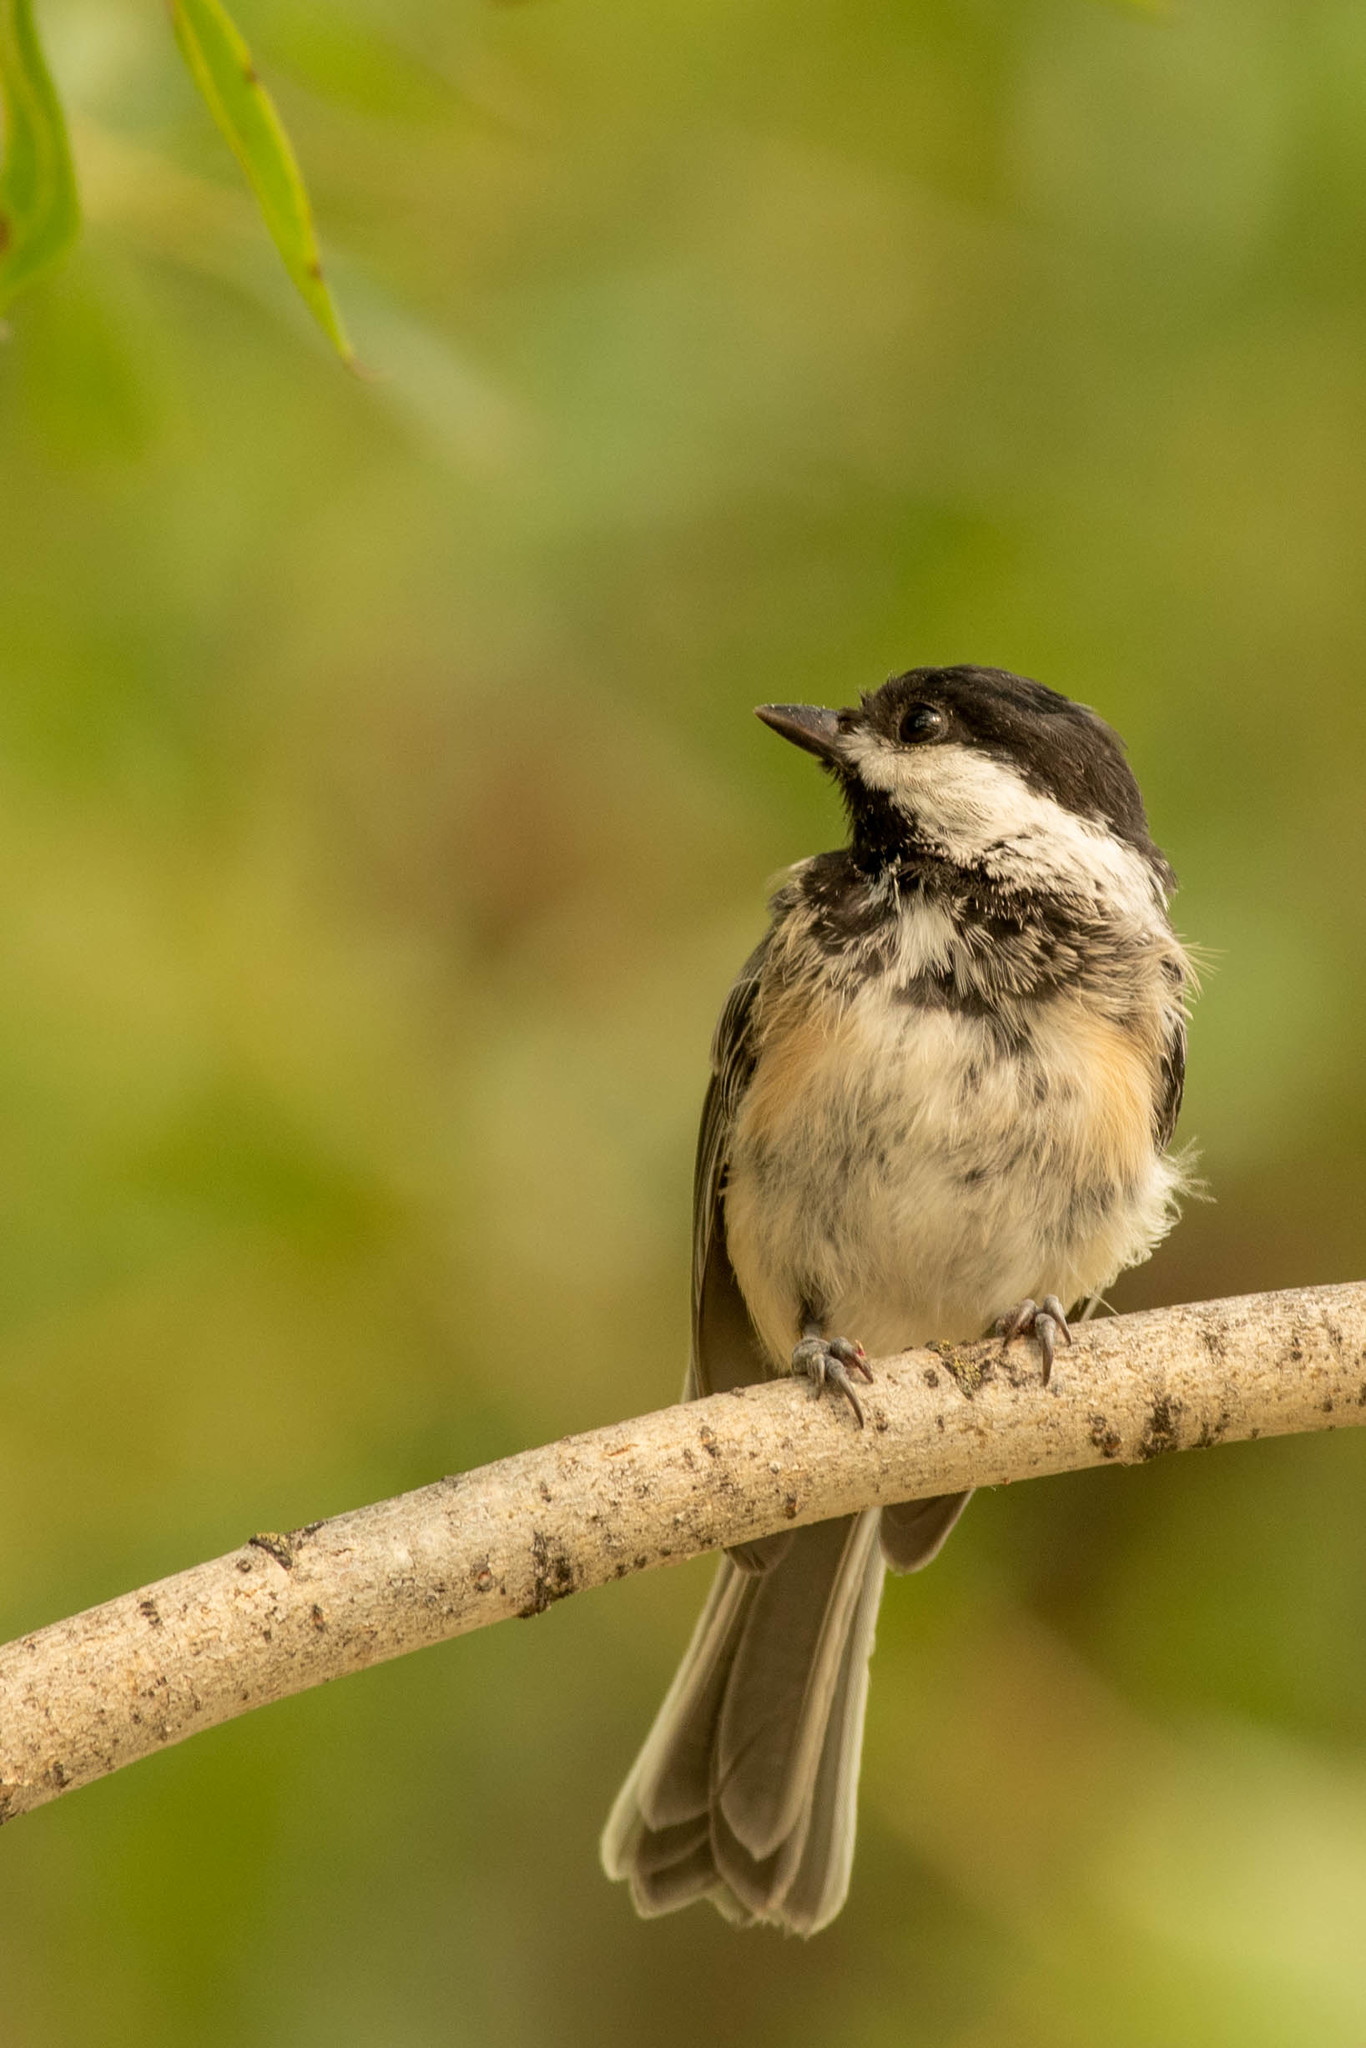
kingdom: Animalia
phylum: Chordata
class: Aves
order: Passeriformes
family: Paridae
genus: Poecile
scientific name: Poecile atricapillus
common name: Black-capped chickadee
